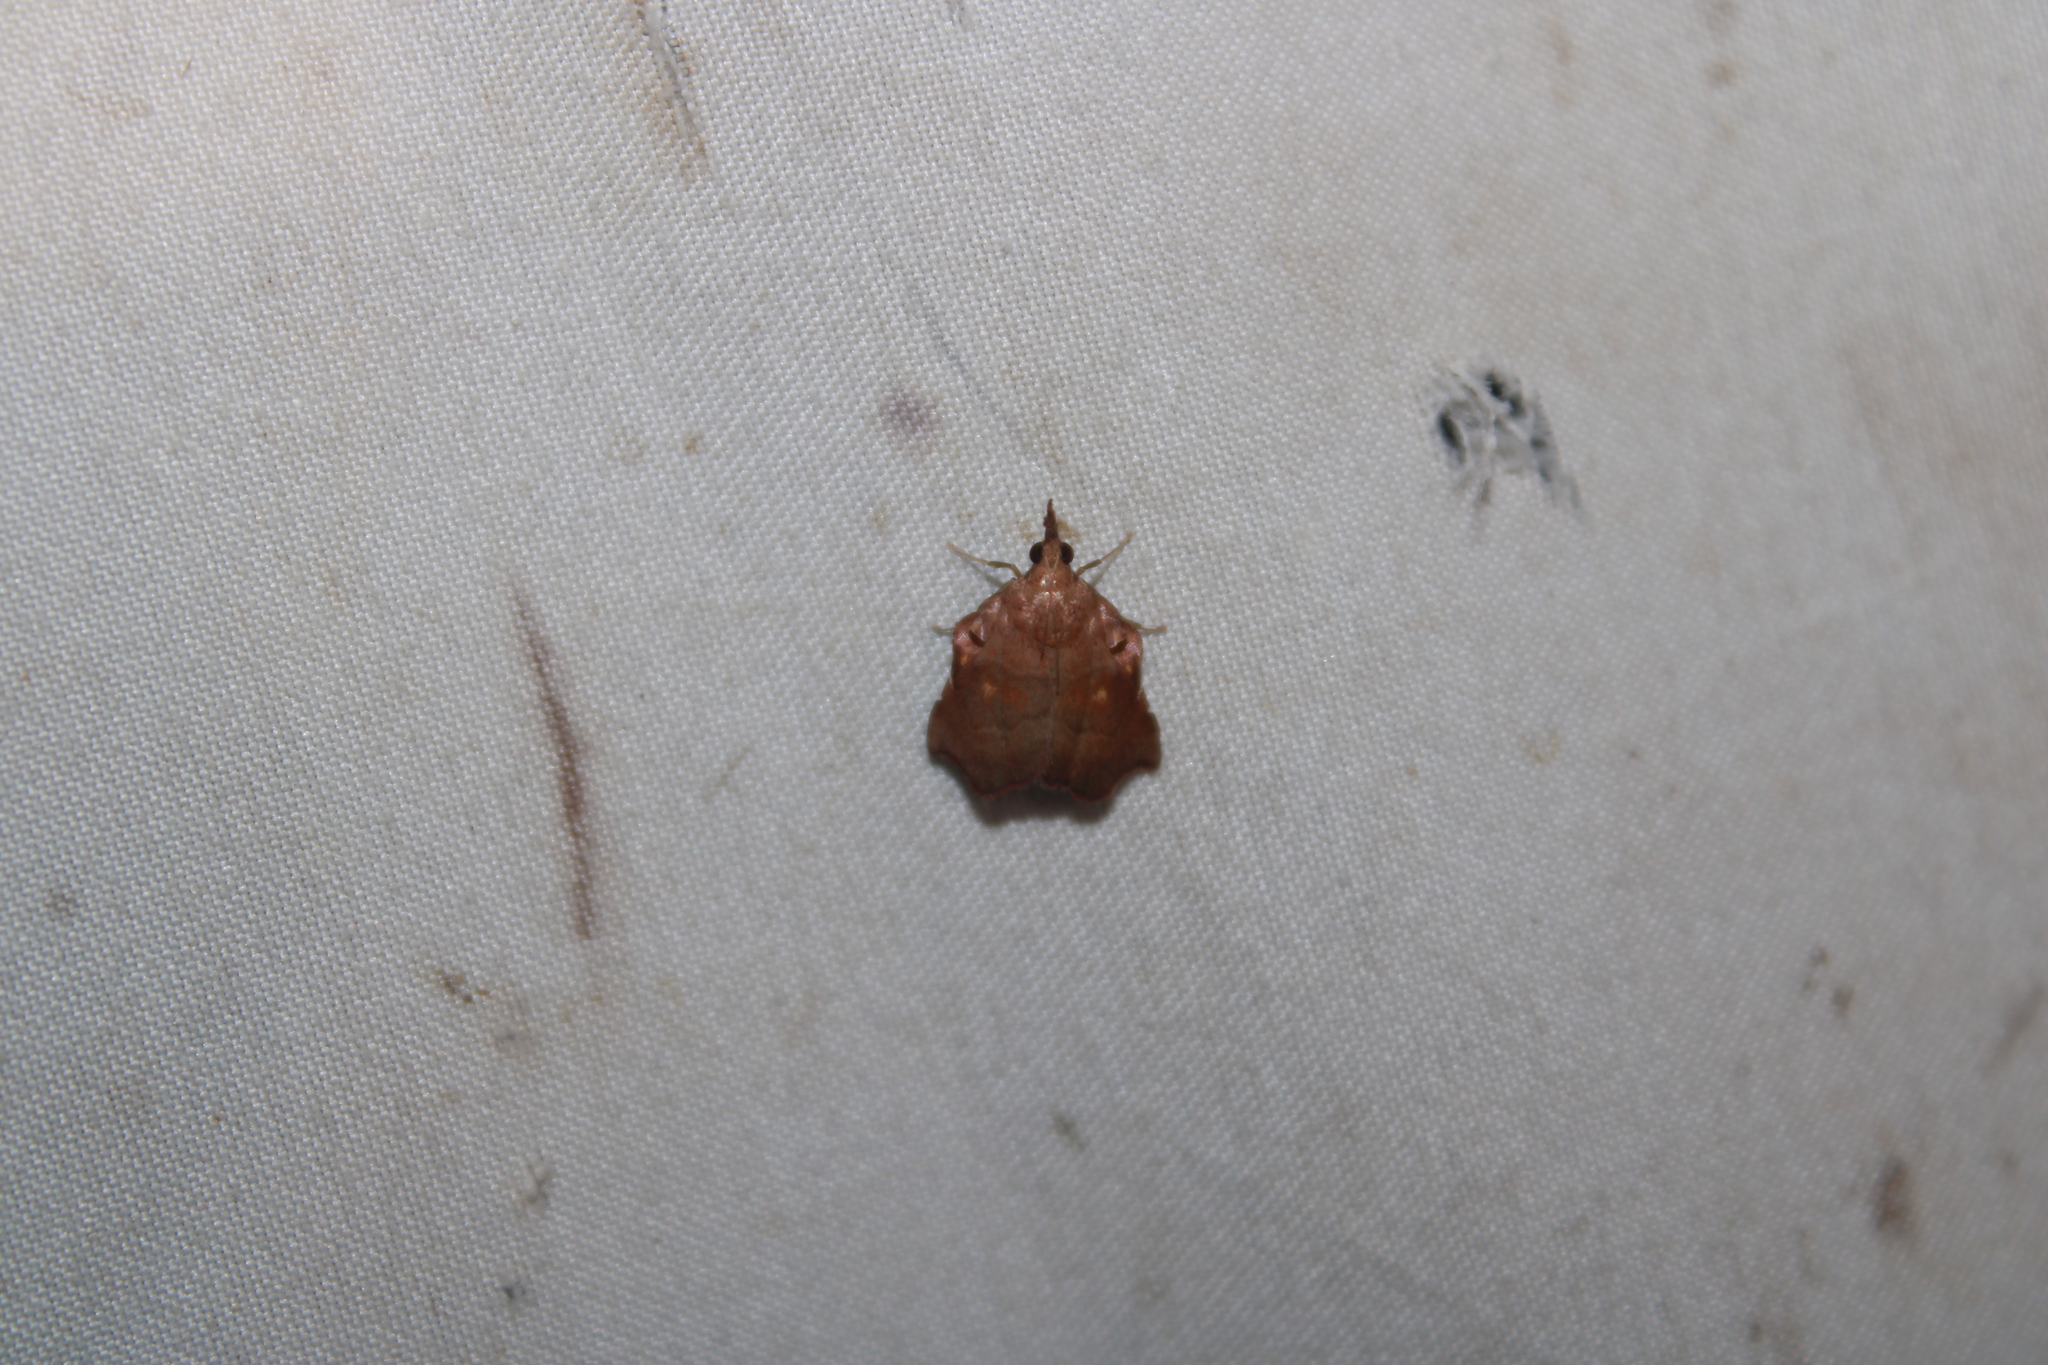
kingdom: Animalia
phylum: Arthropoda
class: Insecta
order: Lepidoptera
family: Pyralidae
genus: Salobrena
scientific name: Salobrena recurvata
